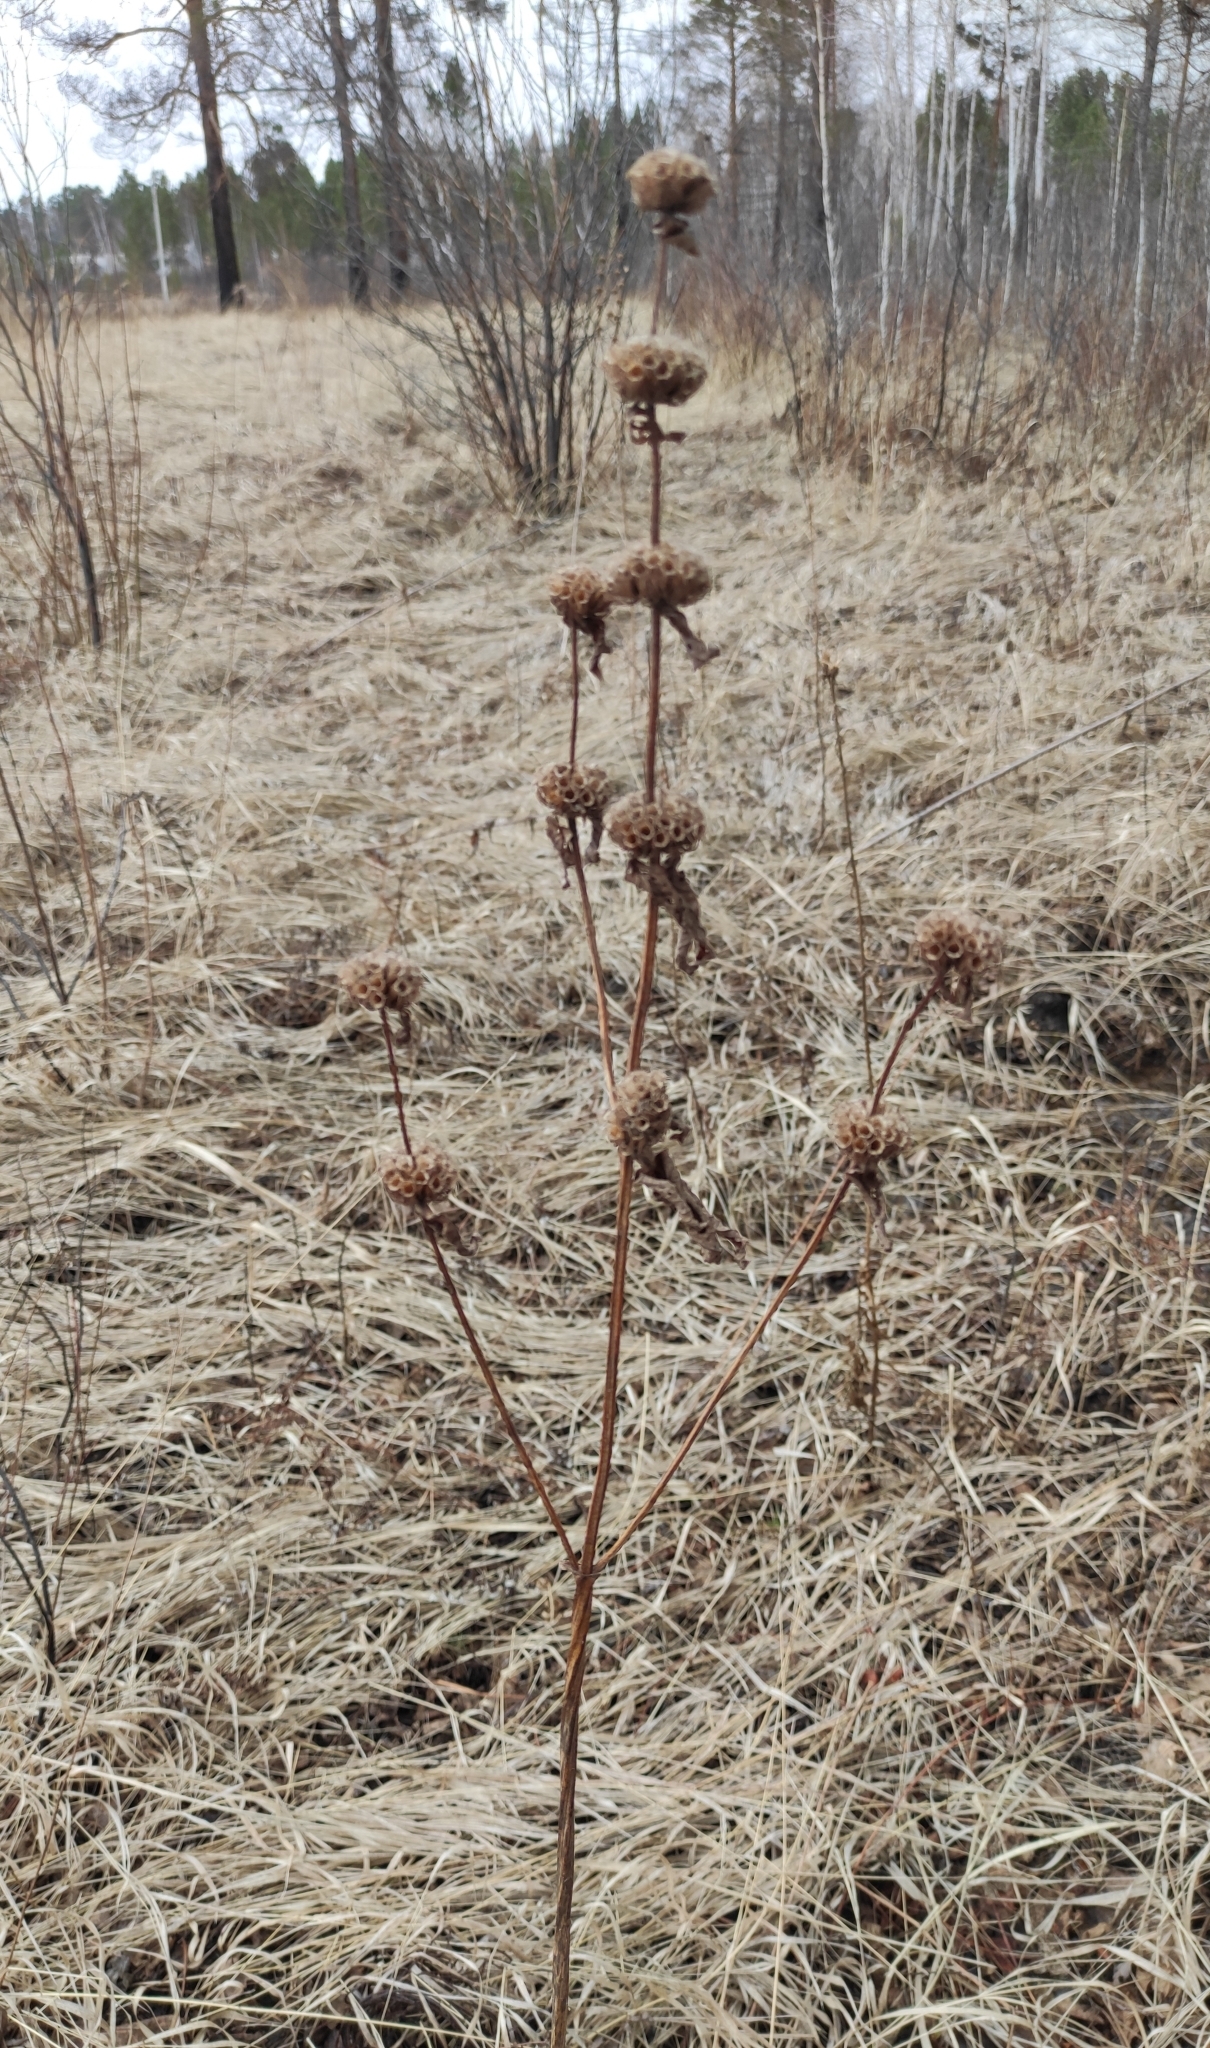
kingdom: Plantae
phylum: Tracheophyta
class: Magnoliopsida
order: Lamiales
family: Lamiaceae
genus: Phlomoides
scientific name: Phlomoides tuberosa
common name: Tuberous jerusalem sage
